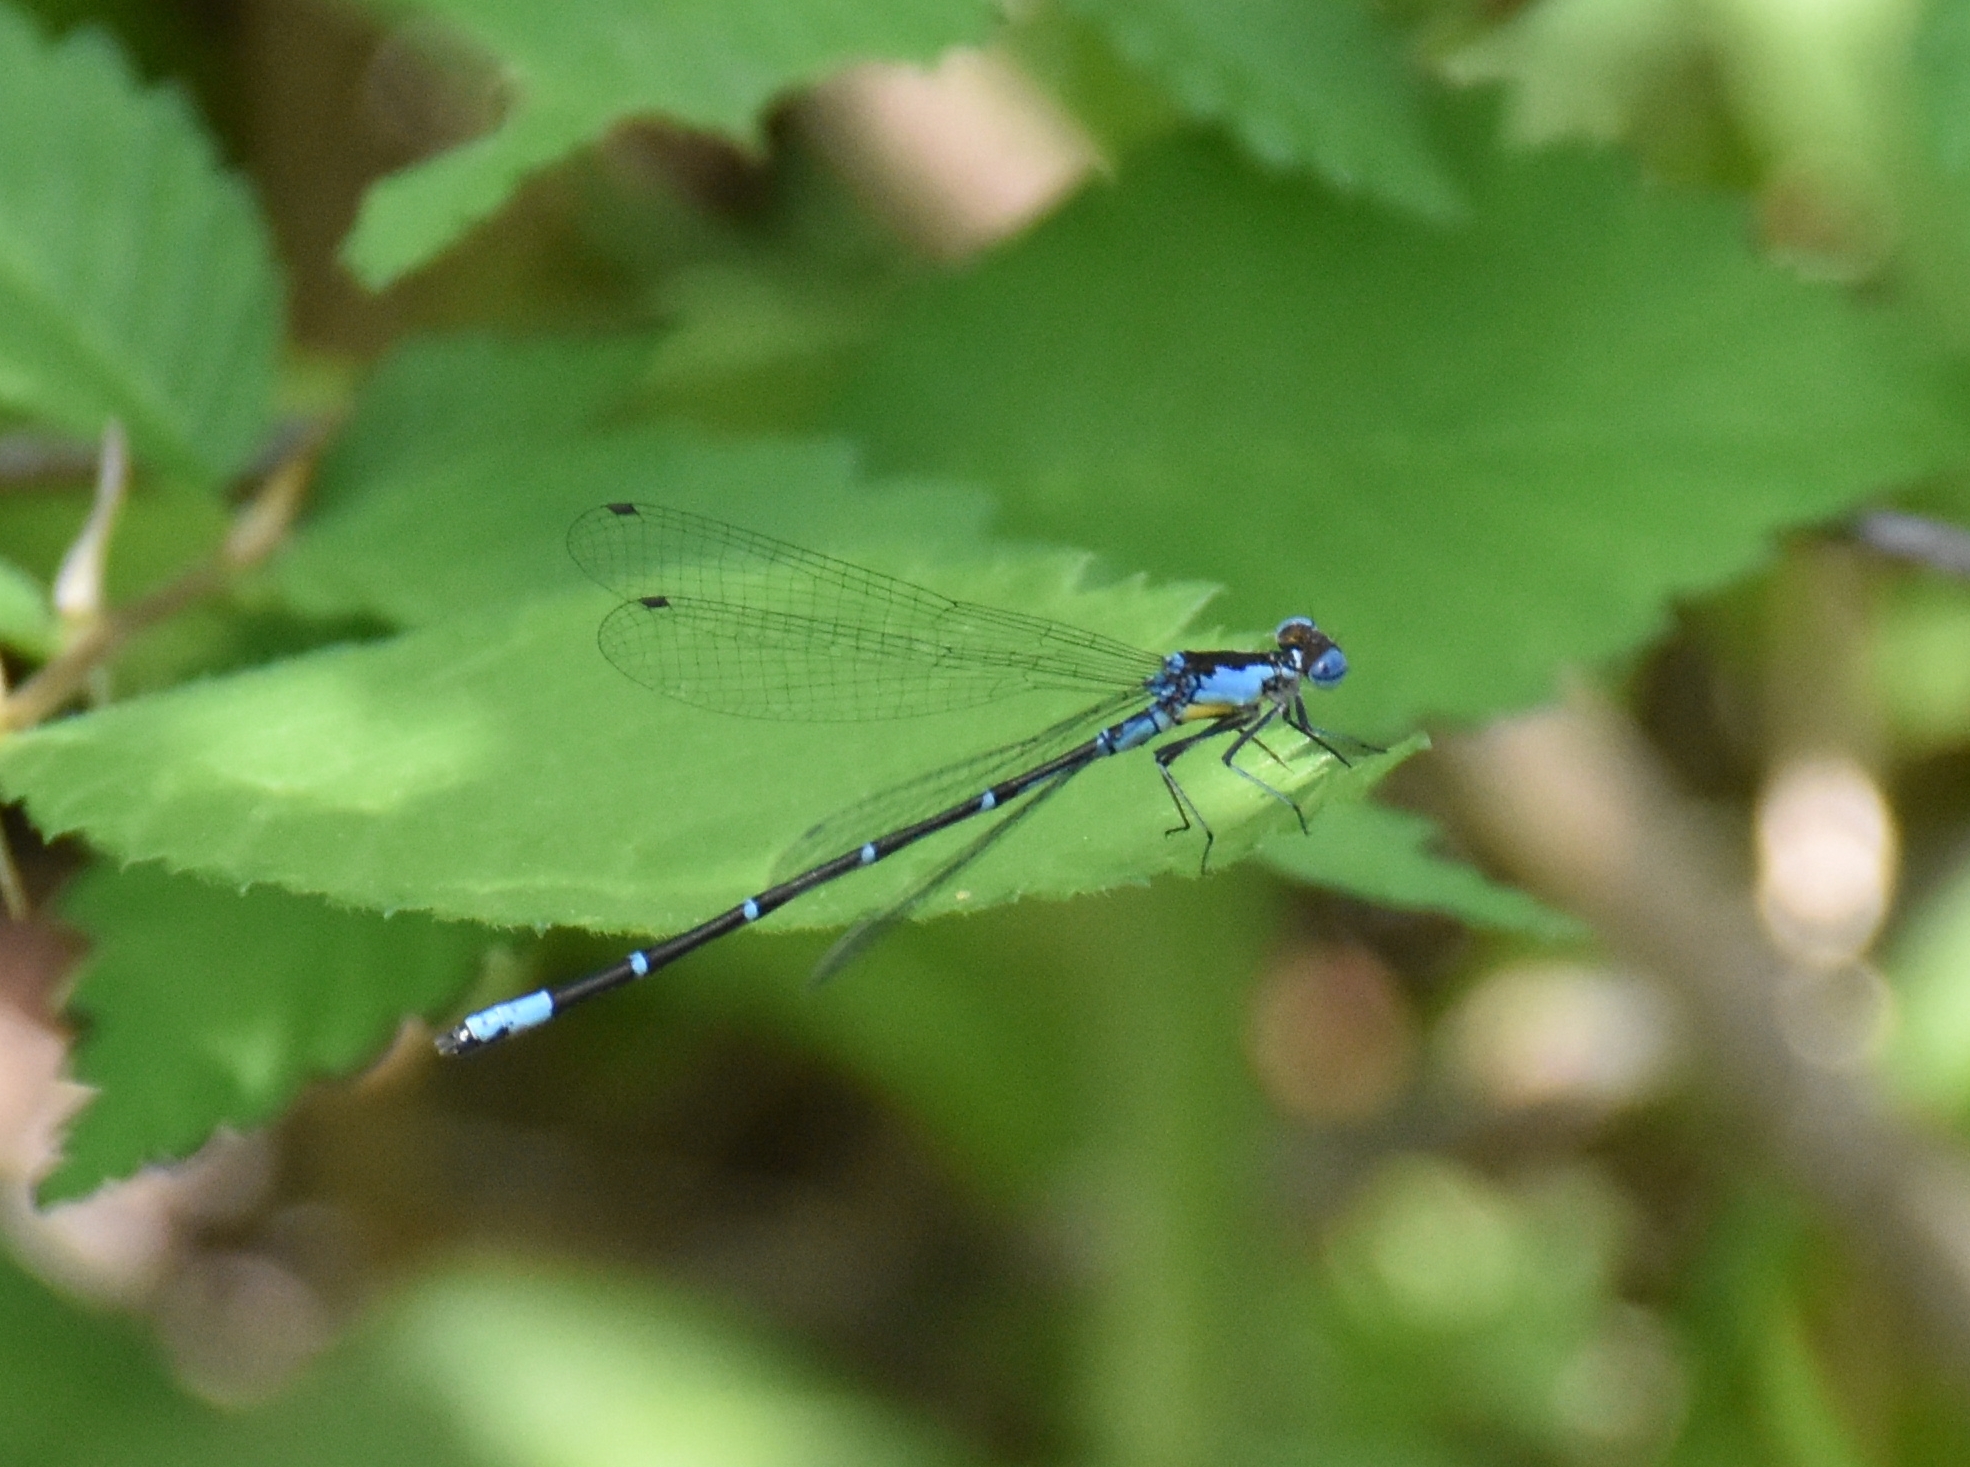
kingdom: Animalia
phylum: Arthropoda
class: Insecta
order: Odonata
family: Coenagrionidae
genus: Chromagrion
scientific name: Chromagrion conditum
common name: Aurora damsel
